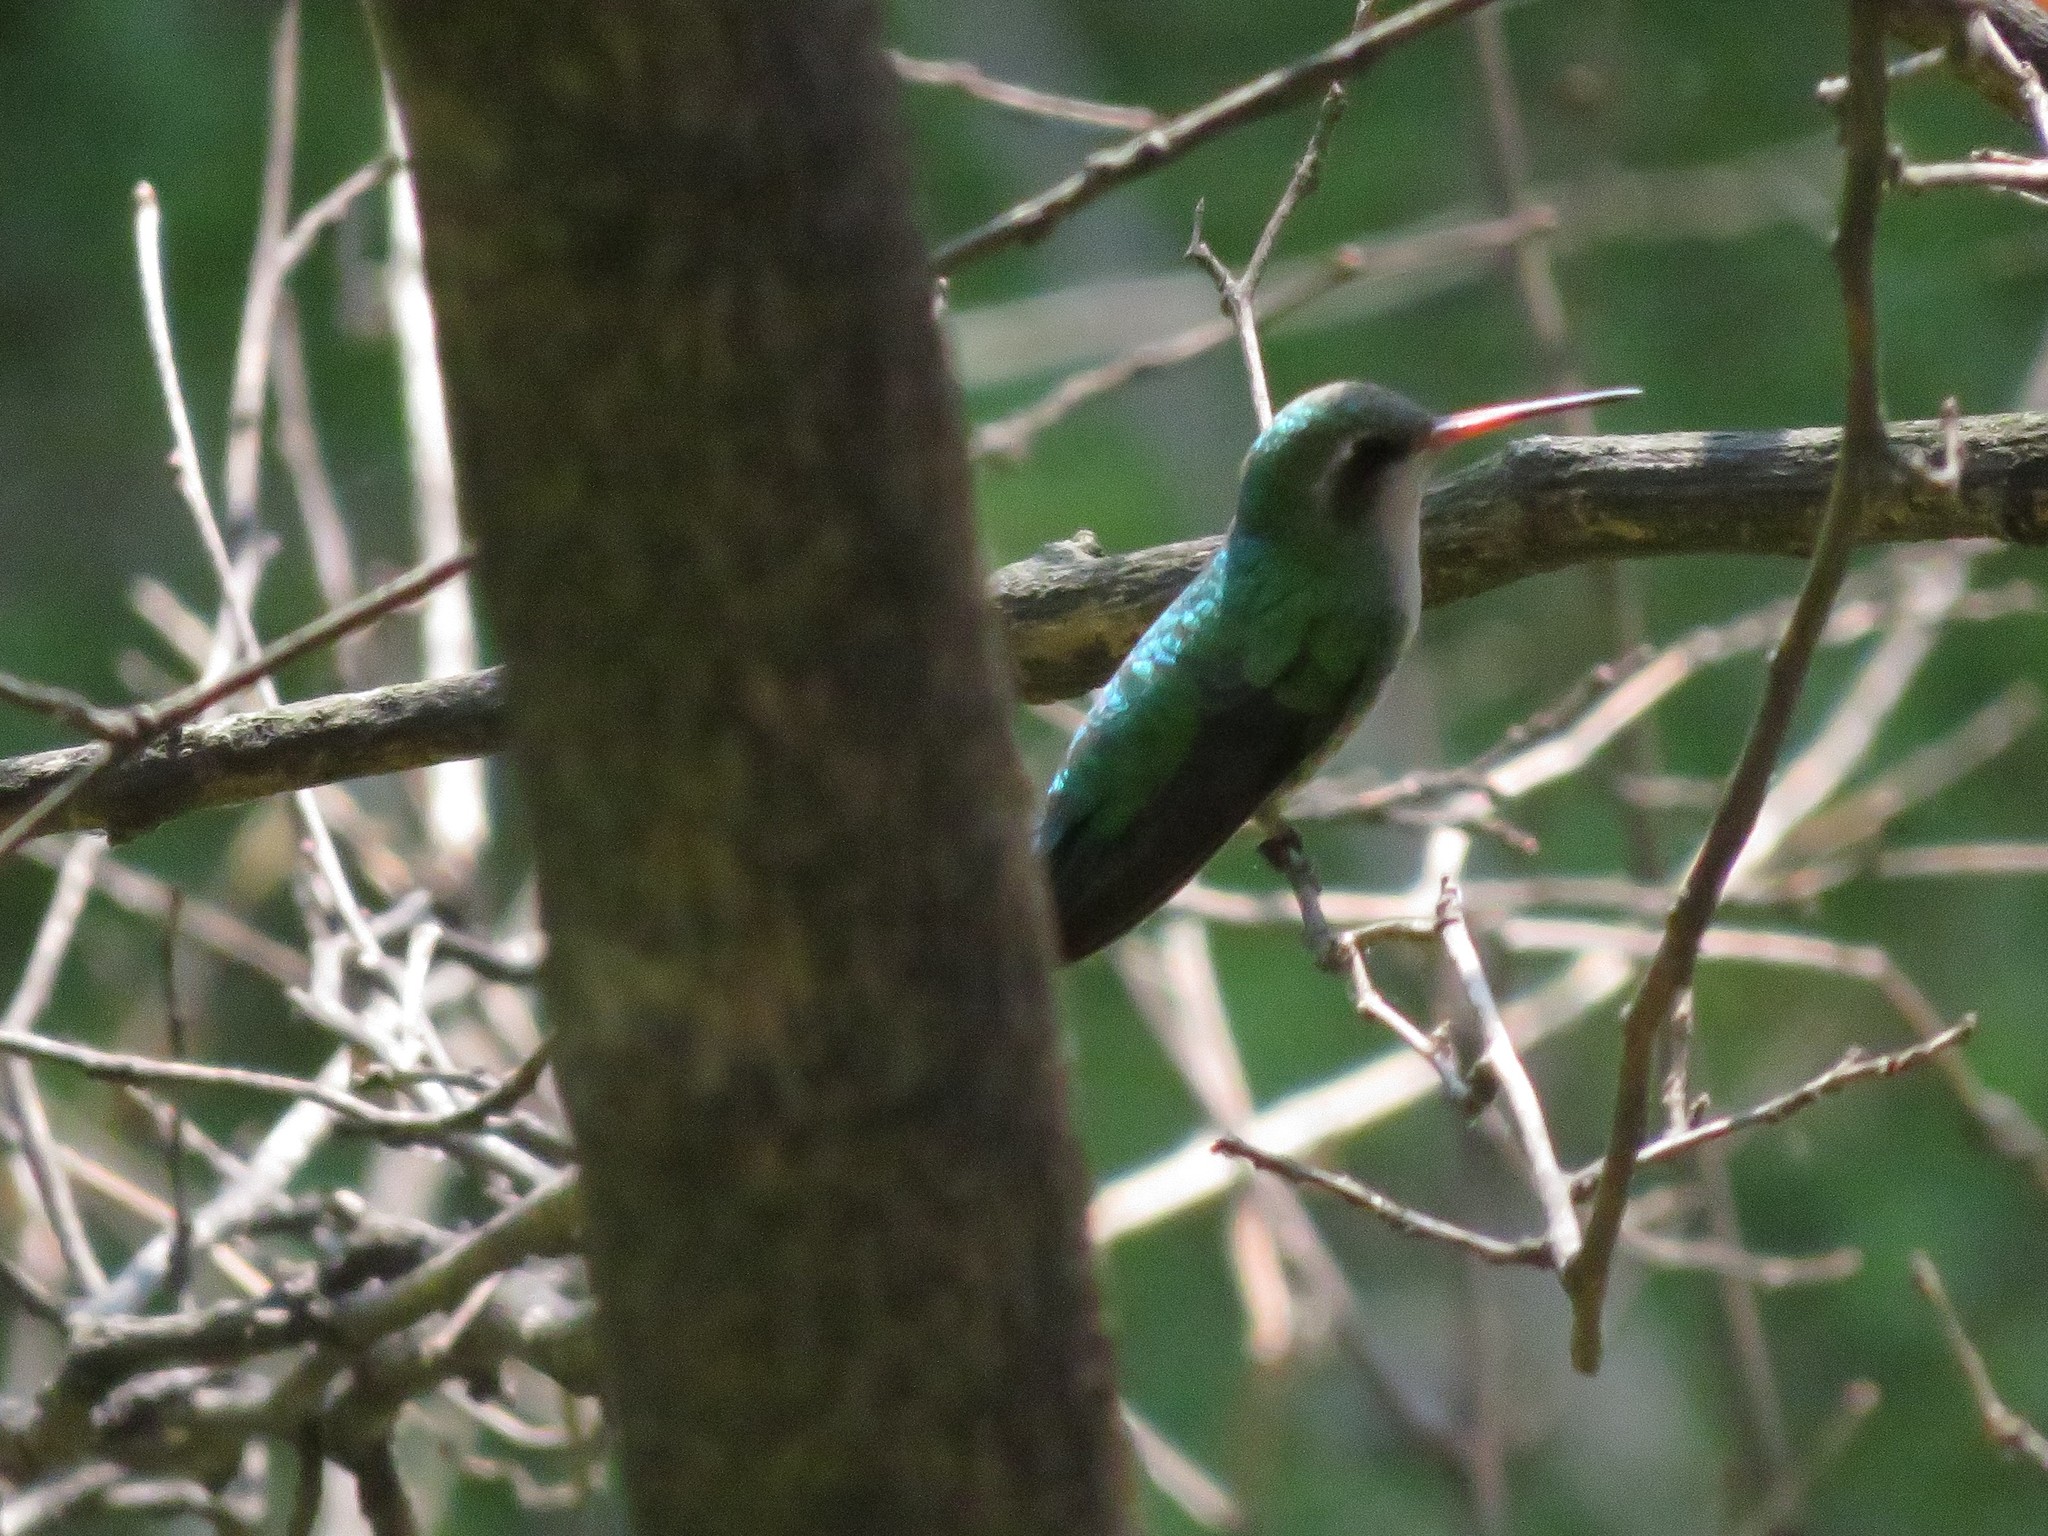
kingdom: Animalia
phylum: Chordata
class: Aves
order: Apodiformes
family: Trochilidae
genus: Chlorostilbon
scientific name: Chlorostilbon lucidus
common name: Glittering-bellied emerald
